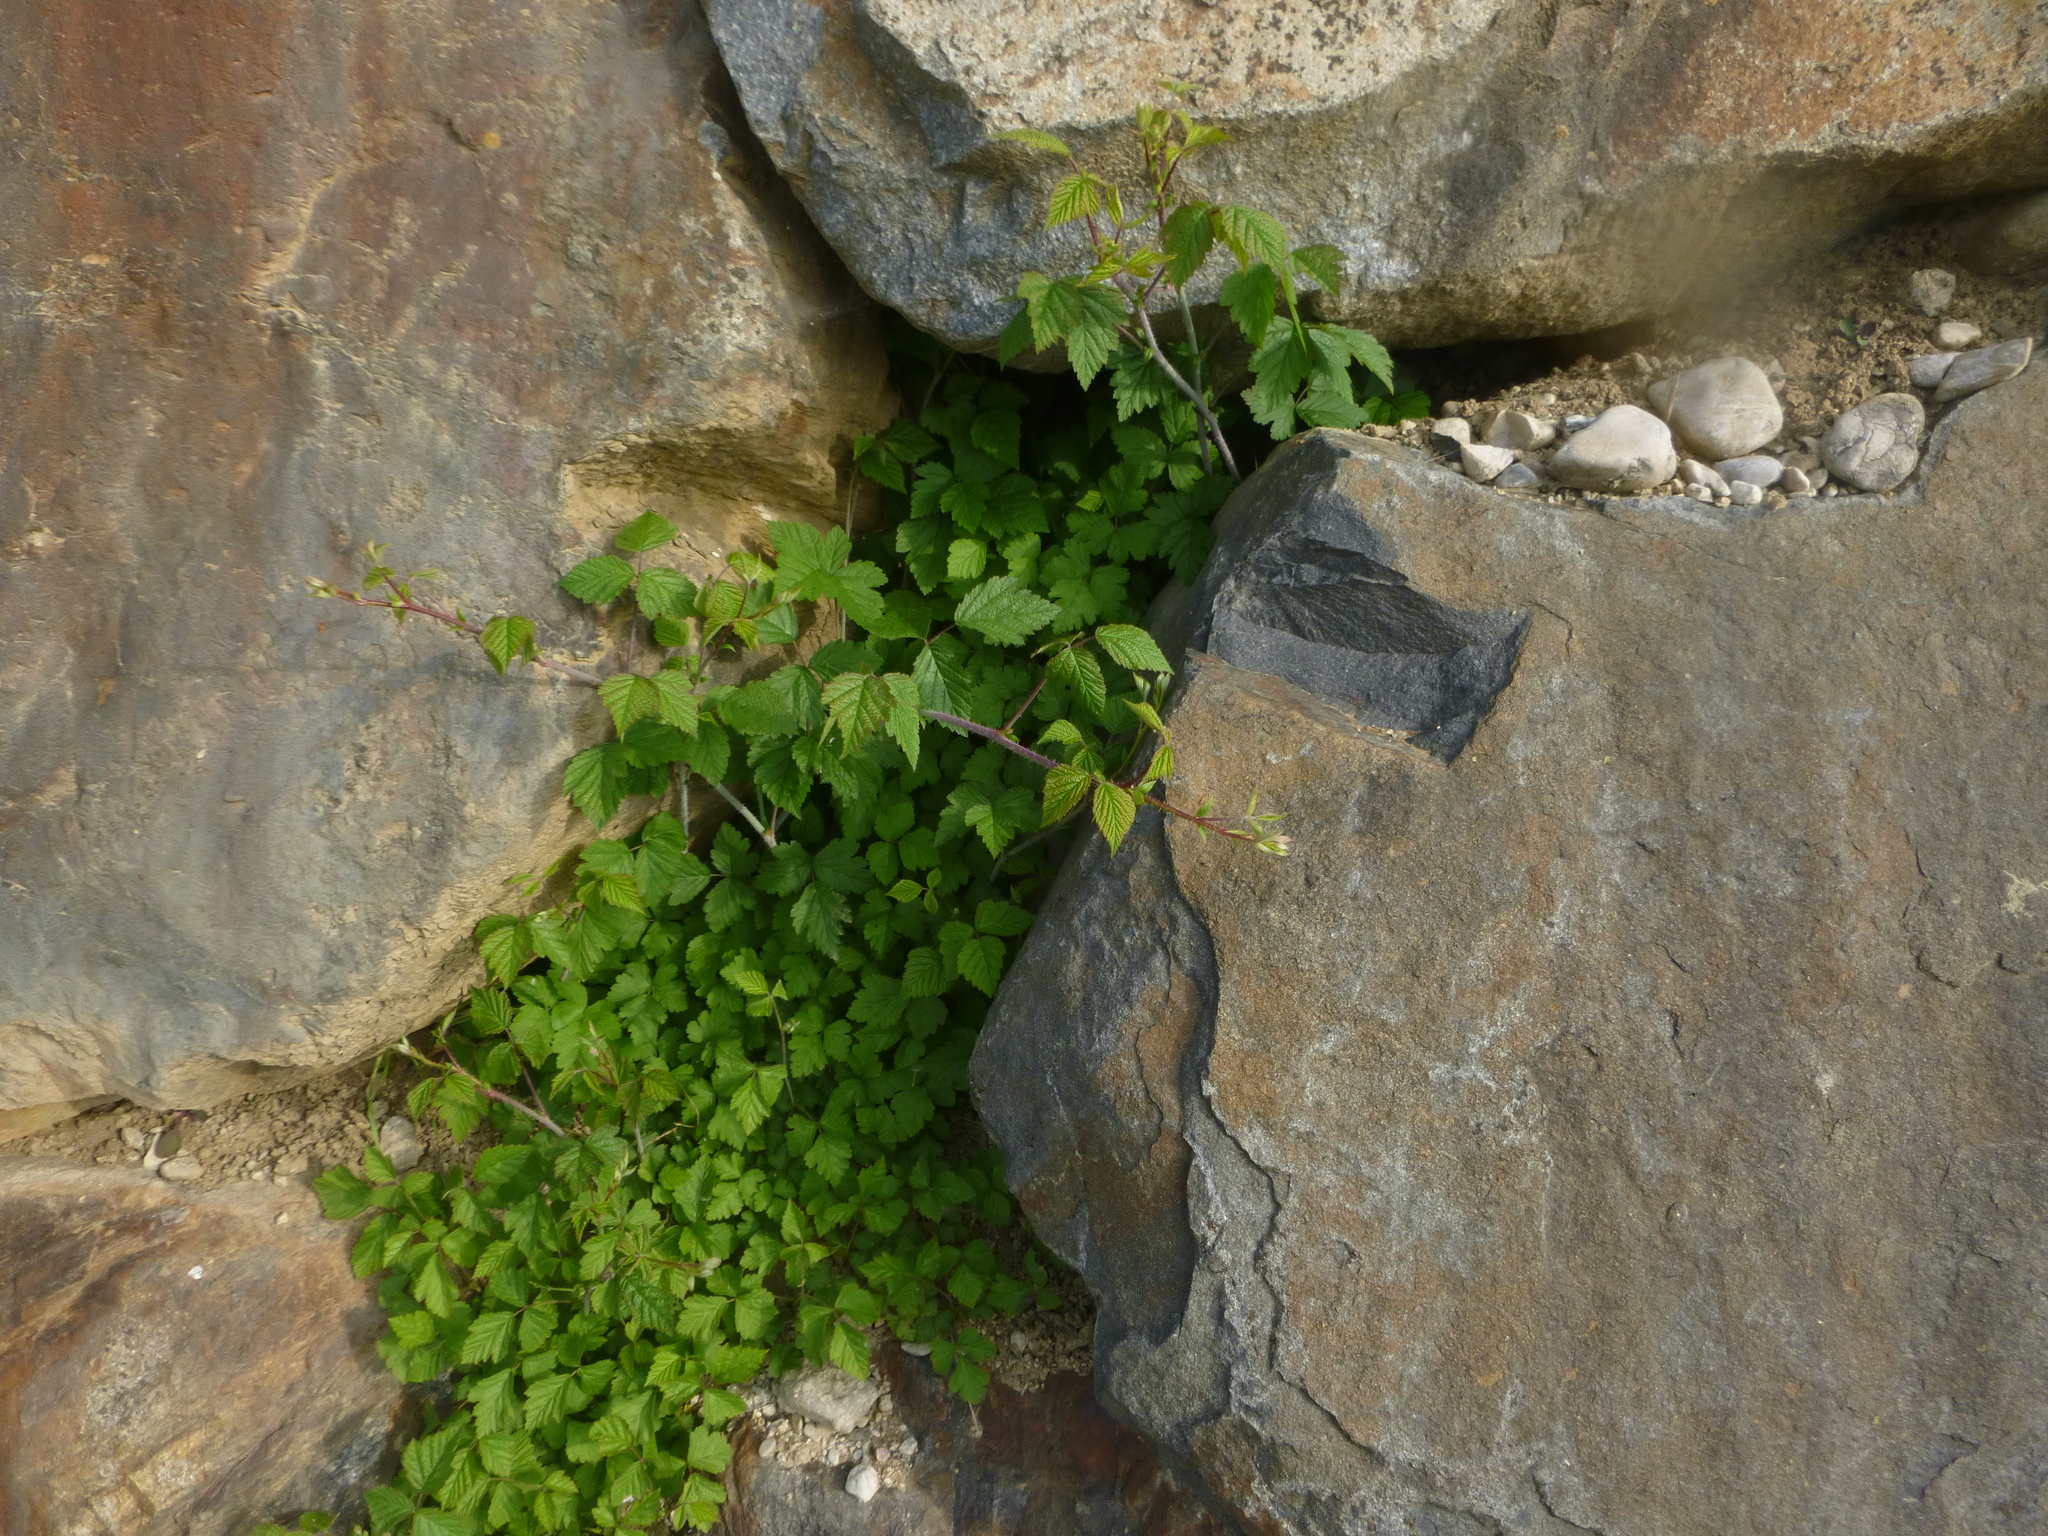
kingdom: Plantae
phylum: Tracheophyta
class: Magnoliopsida
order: Rosales
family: Rosaceae
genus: Rubus
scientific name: Rubus caesius
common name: Dewberry
